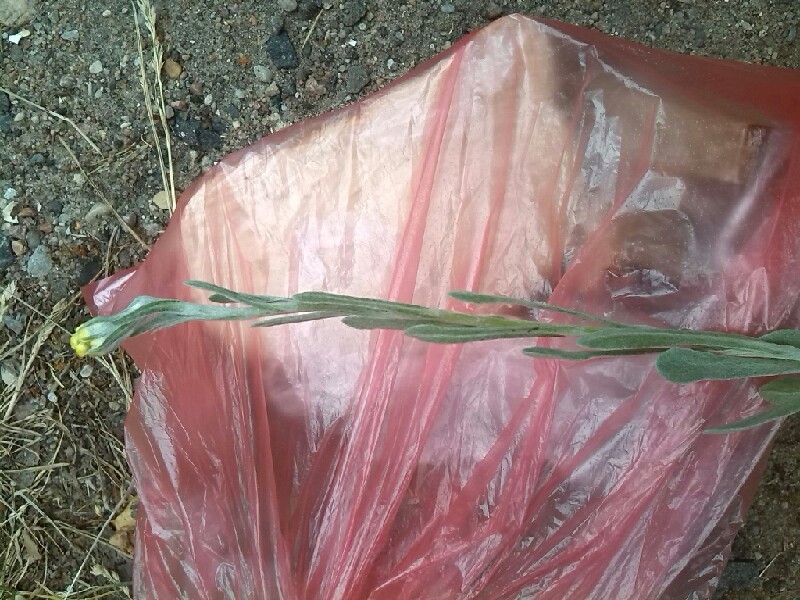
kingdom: Plantae
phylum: Tracheophyta
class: Magnoliopsida
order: Asterales
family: Asteraceae
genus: Helichrysum
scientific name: Helichrysum arenarium
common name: Strawflower
